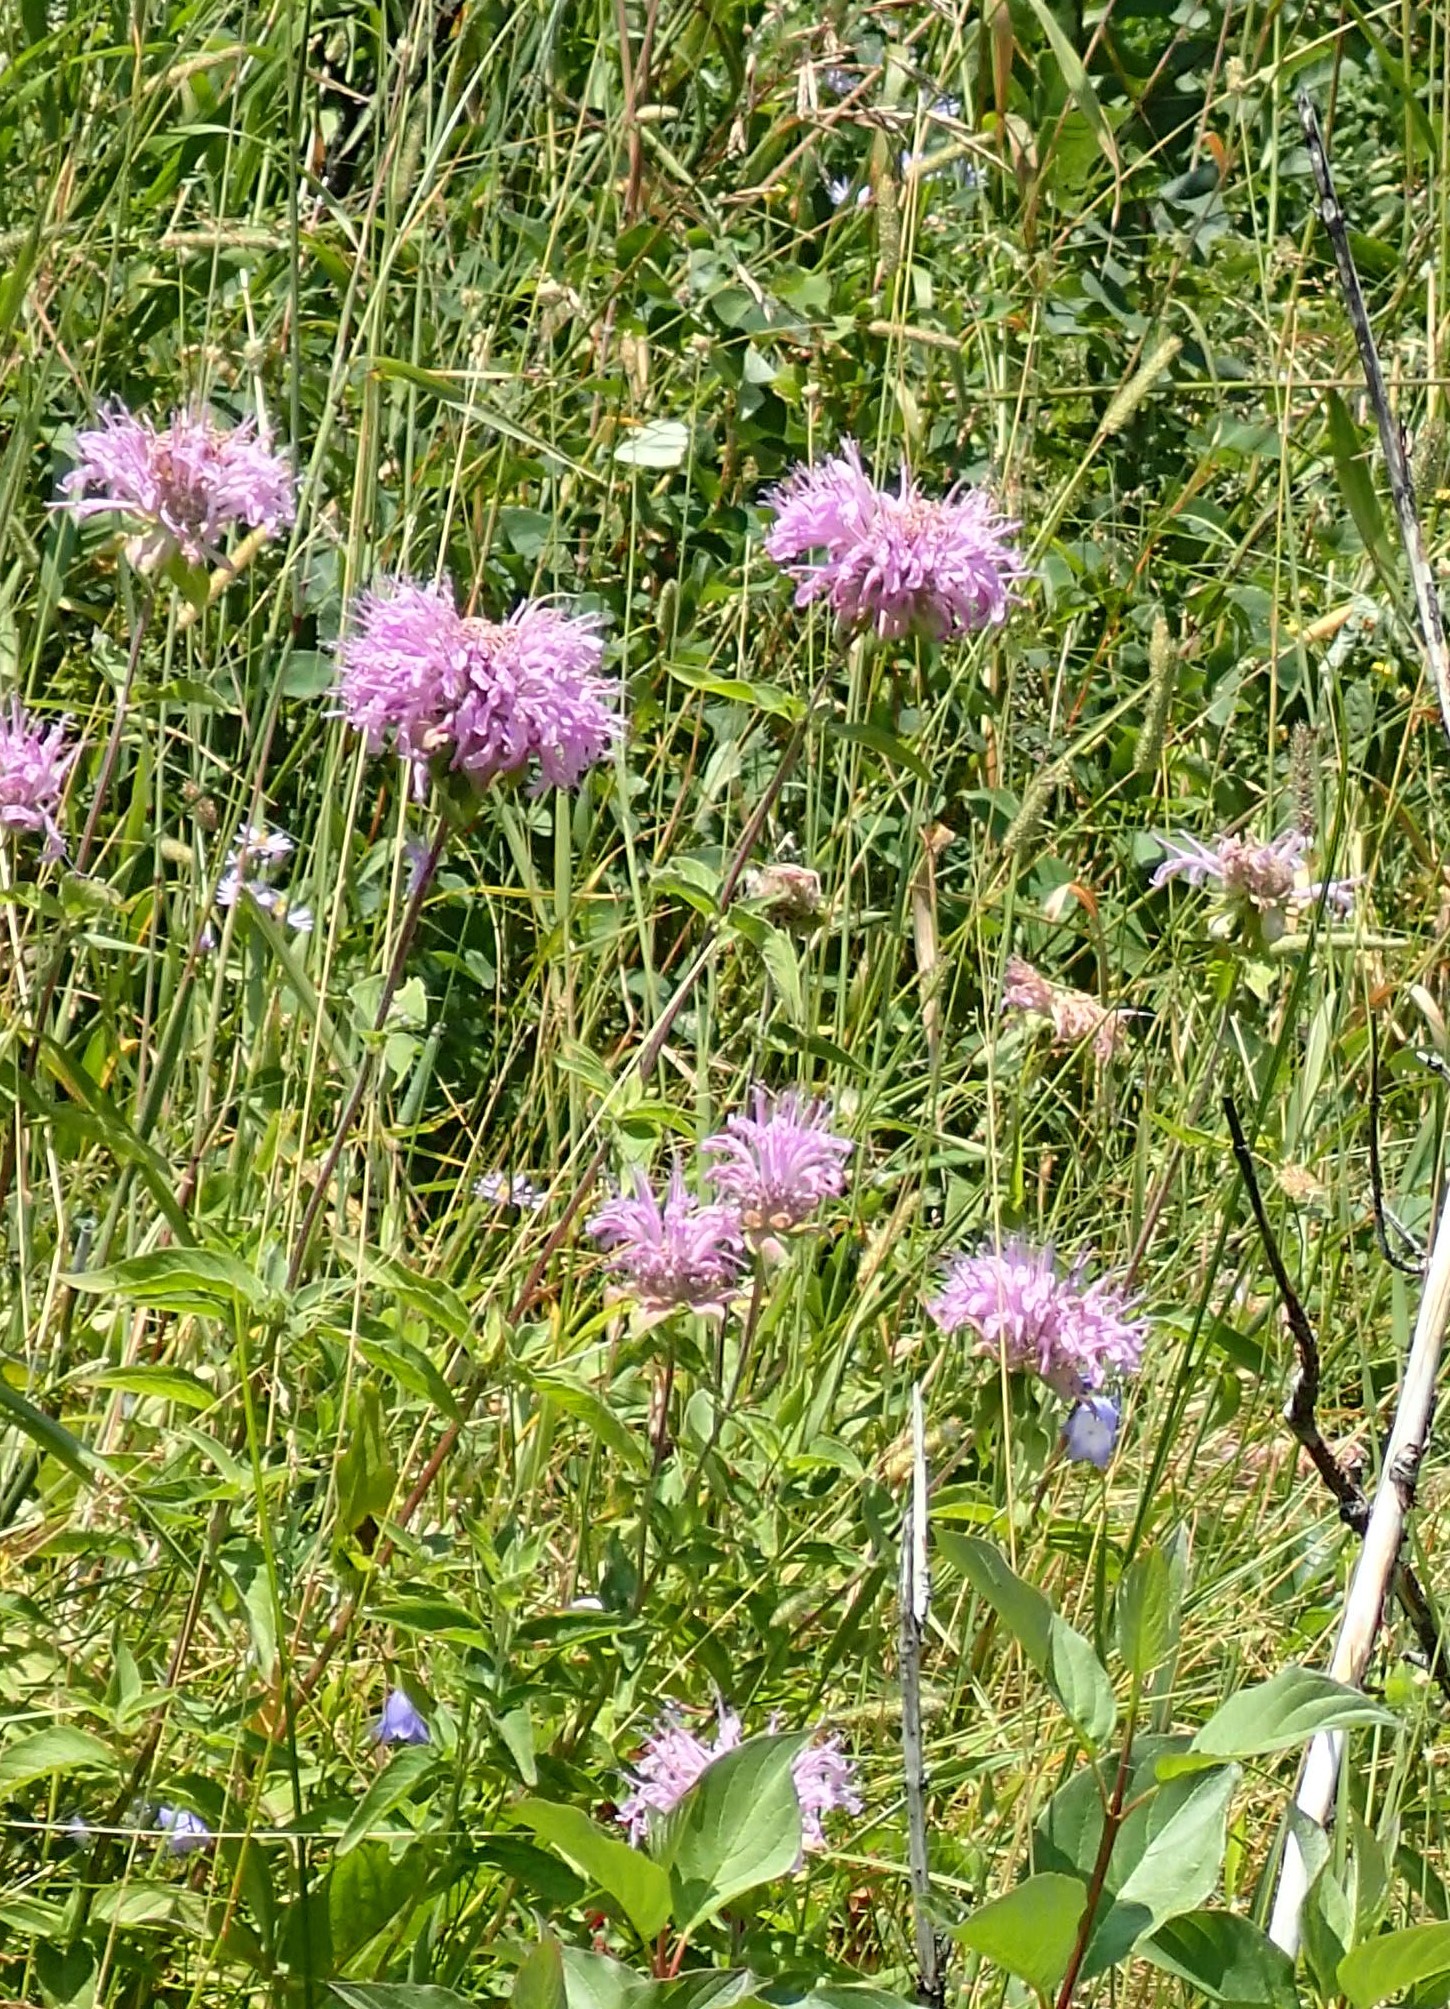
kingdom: Plantae
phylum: Tracheophyta
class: Magnoliopsida
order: Lamiales
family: Lamiaceae
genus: Monarda
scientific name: Monarda fistulosa
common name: Purple beebalm
